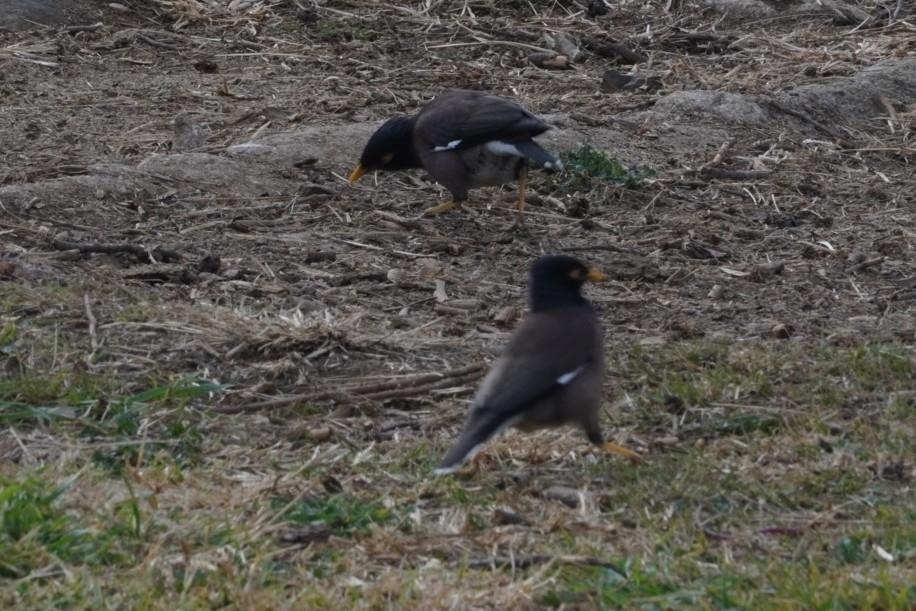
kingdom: Animalia
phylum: Chordata
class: Aves
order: Passeriformes
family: Sturnidae
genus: Acridotheres
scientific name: Acridotheres tristis
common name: Common myna
